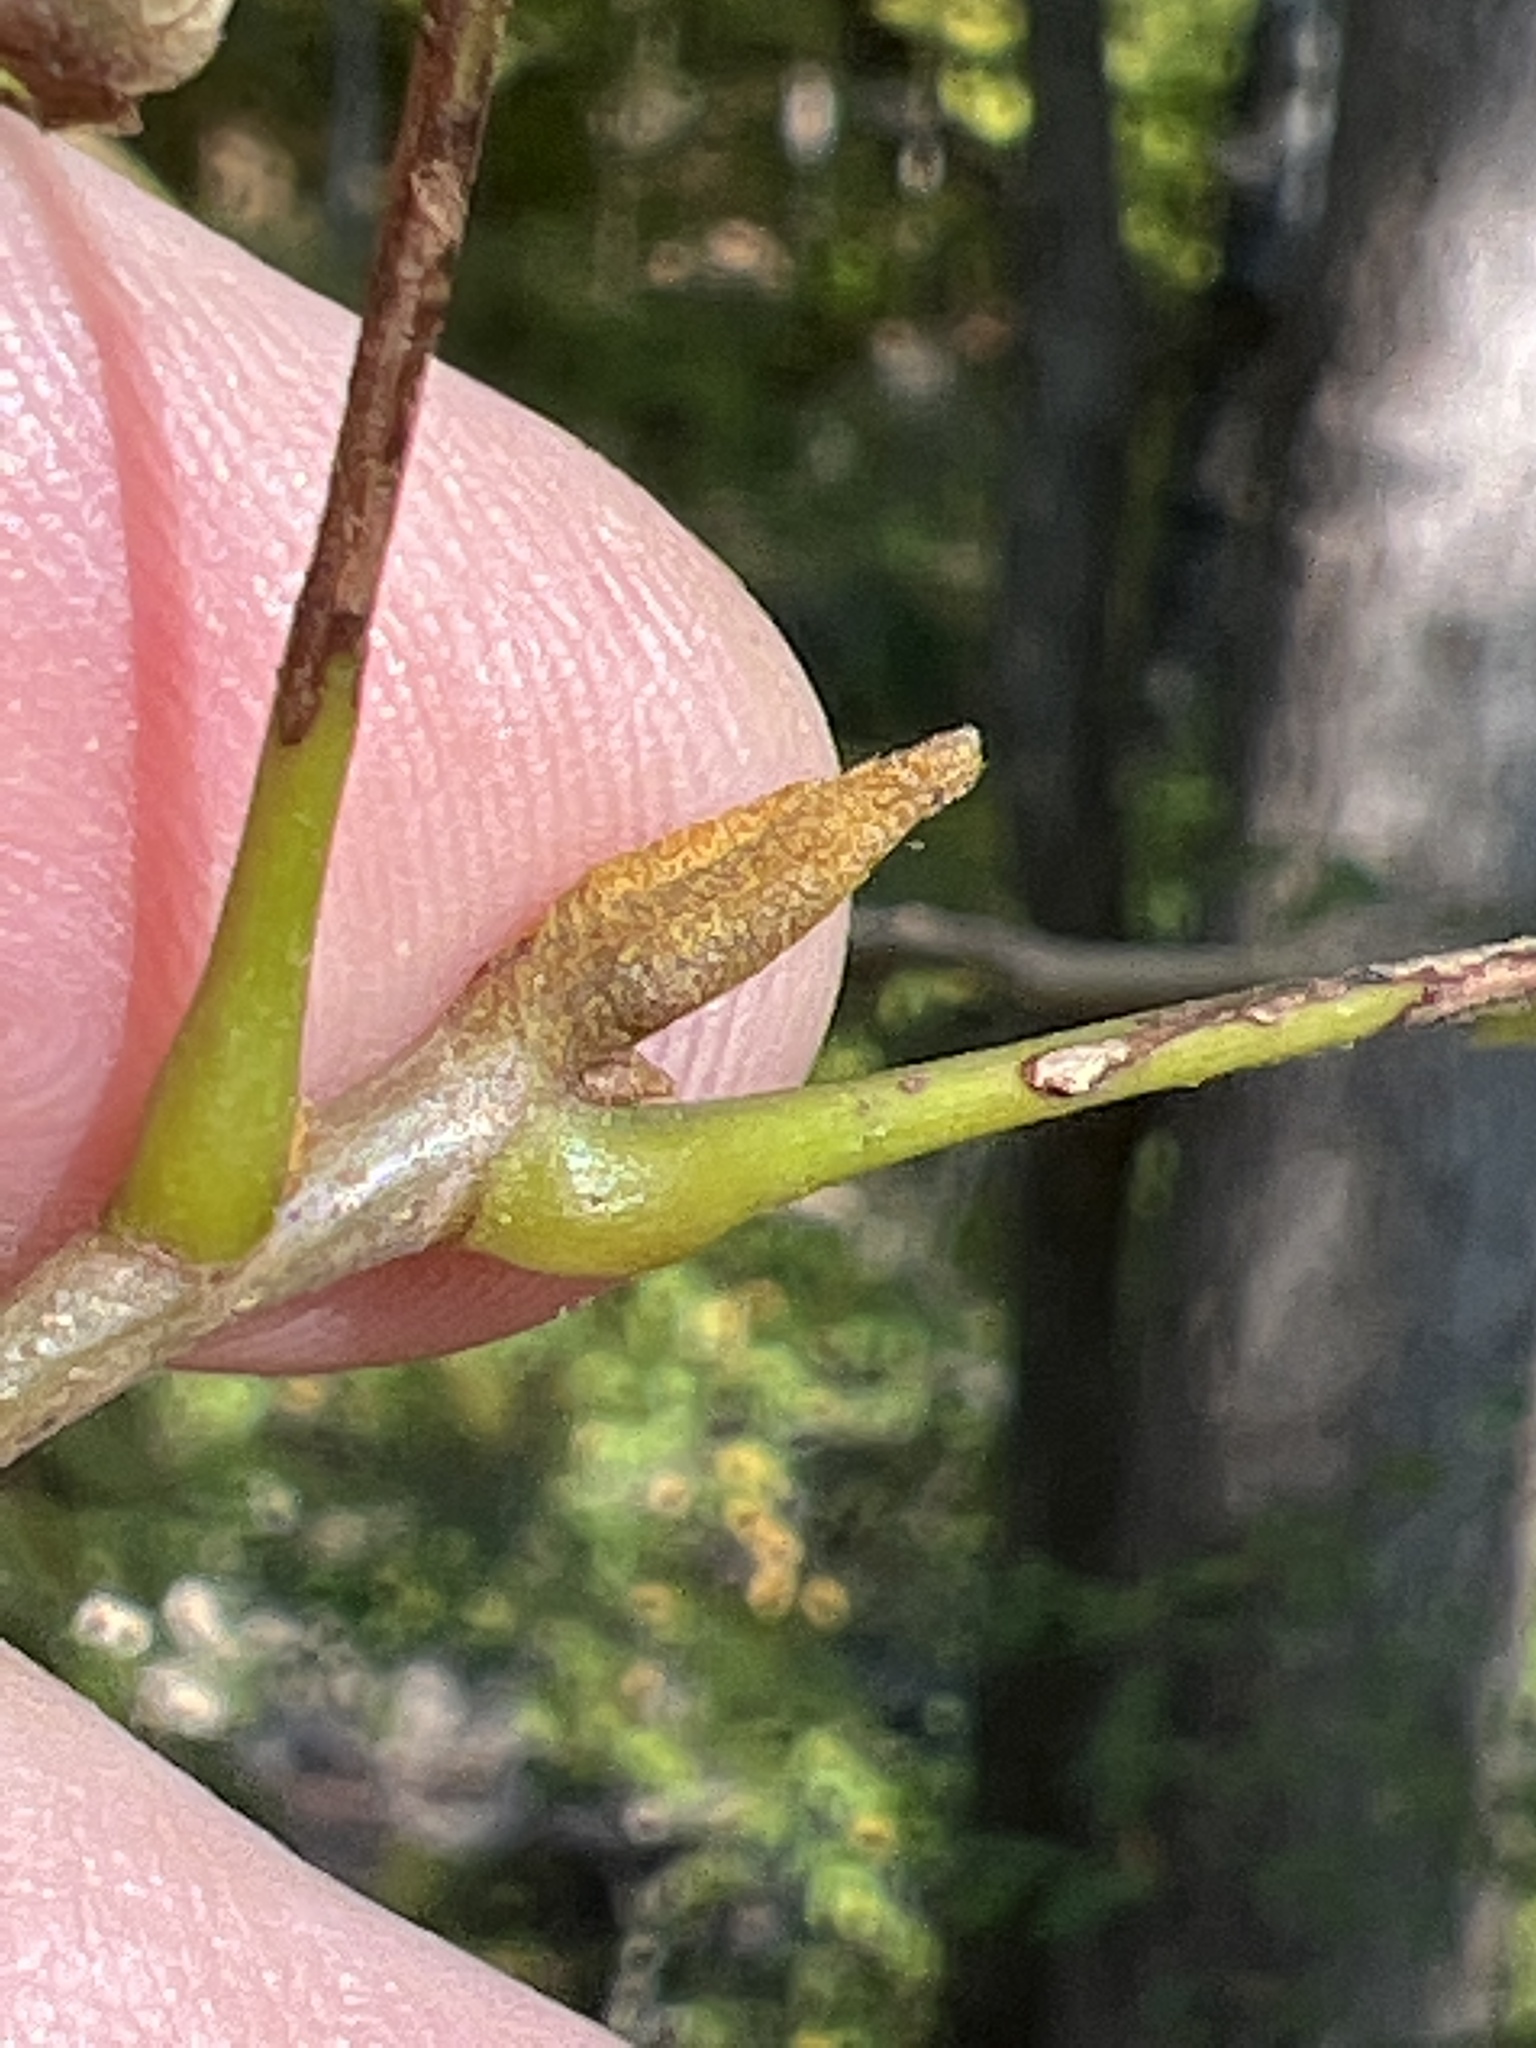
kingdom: Plantae
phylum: Tracheophyta
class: Magnoliopsida
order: Fagales
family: Juglandaceae
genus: Carya
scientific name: Carya cordiformis
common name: Bitternut hickory
